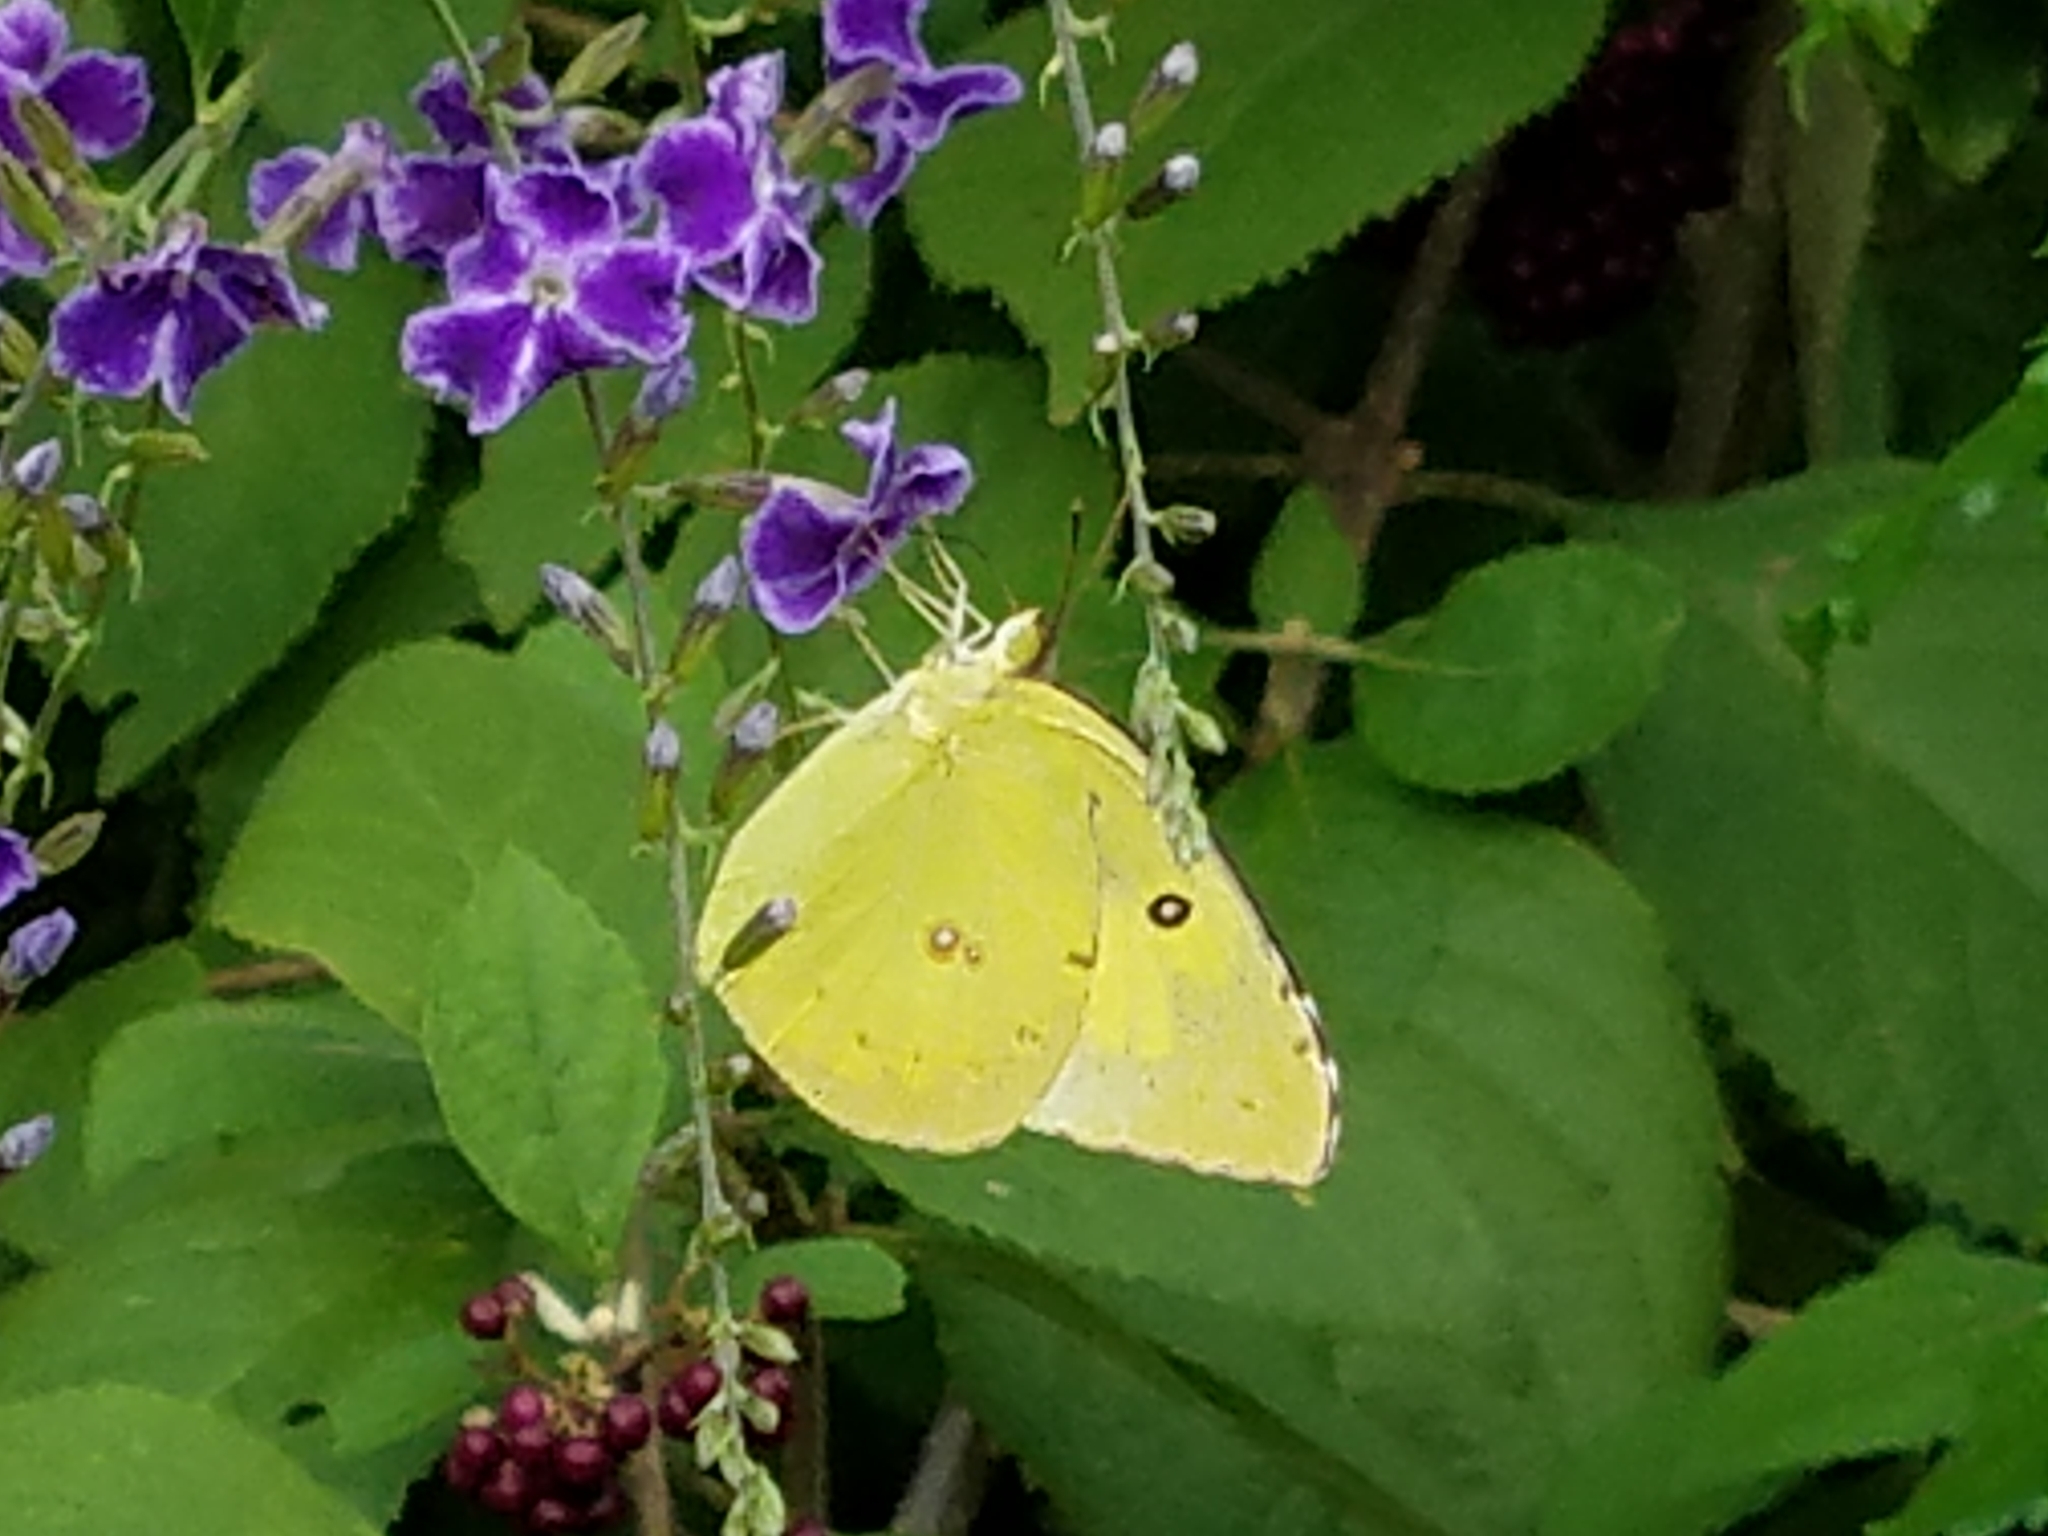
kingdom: Animalia
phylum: Arthropoda
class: Insecta
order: Lepidoptera
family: Pieridae
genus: Zerene
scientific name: Zerene cesonia
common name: Southern dogface
